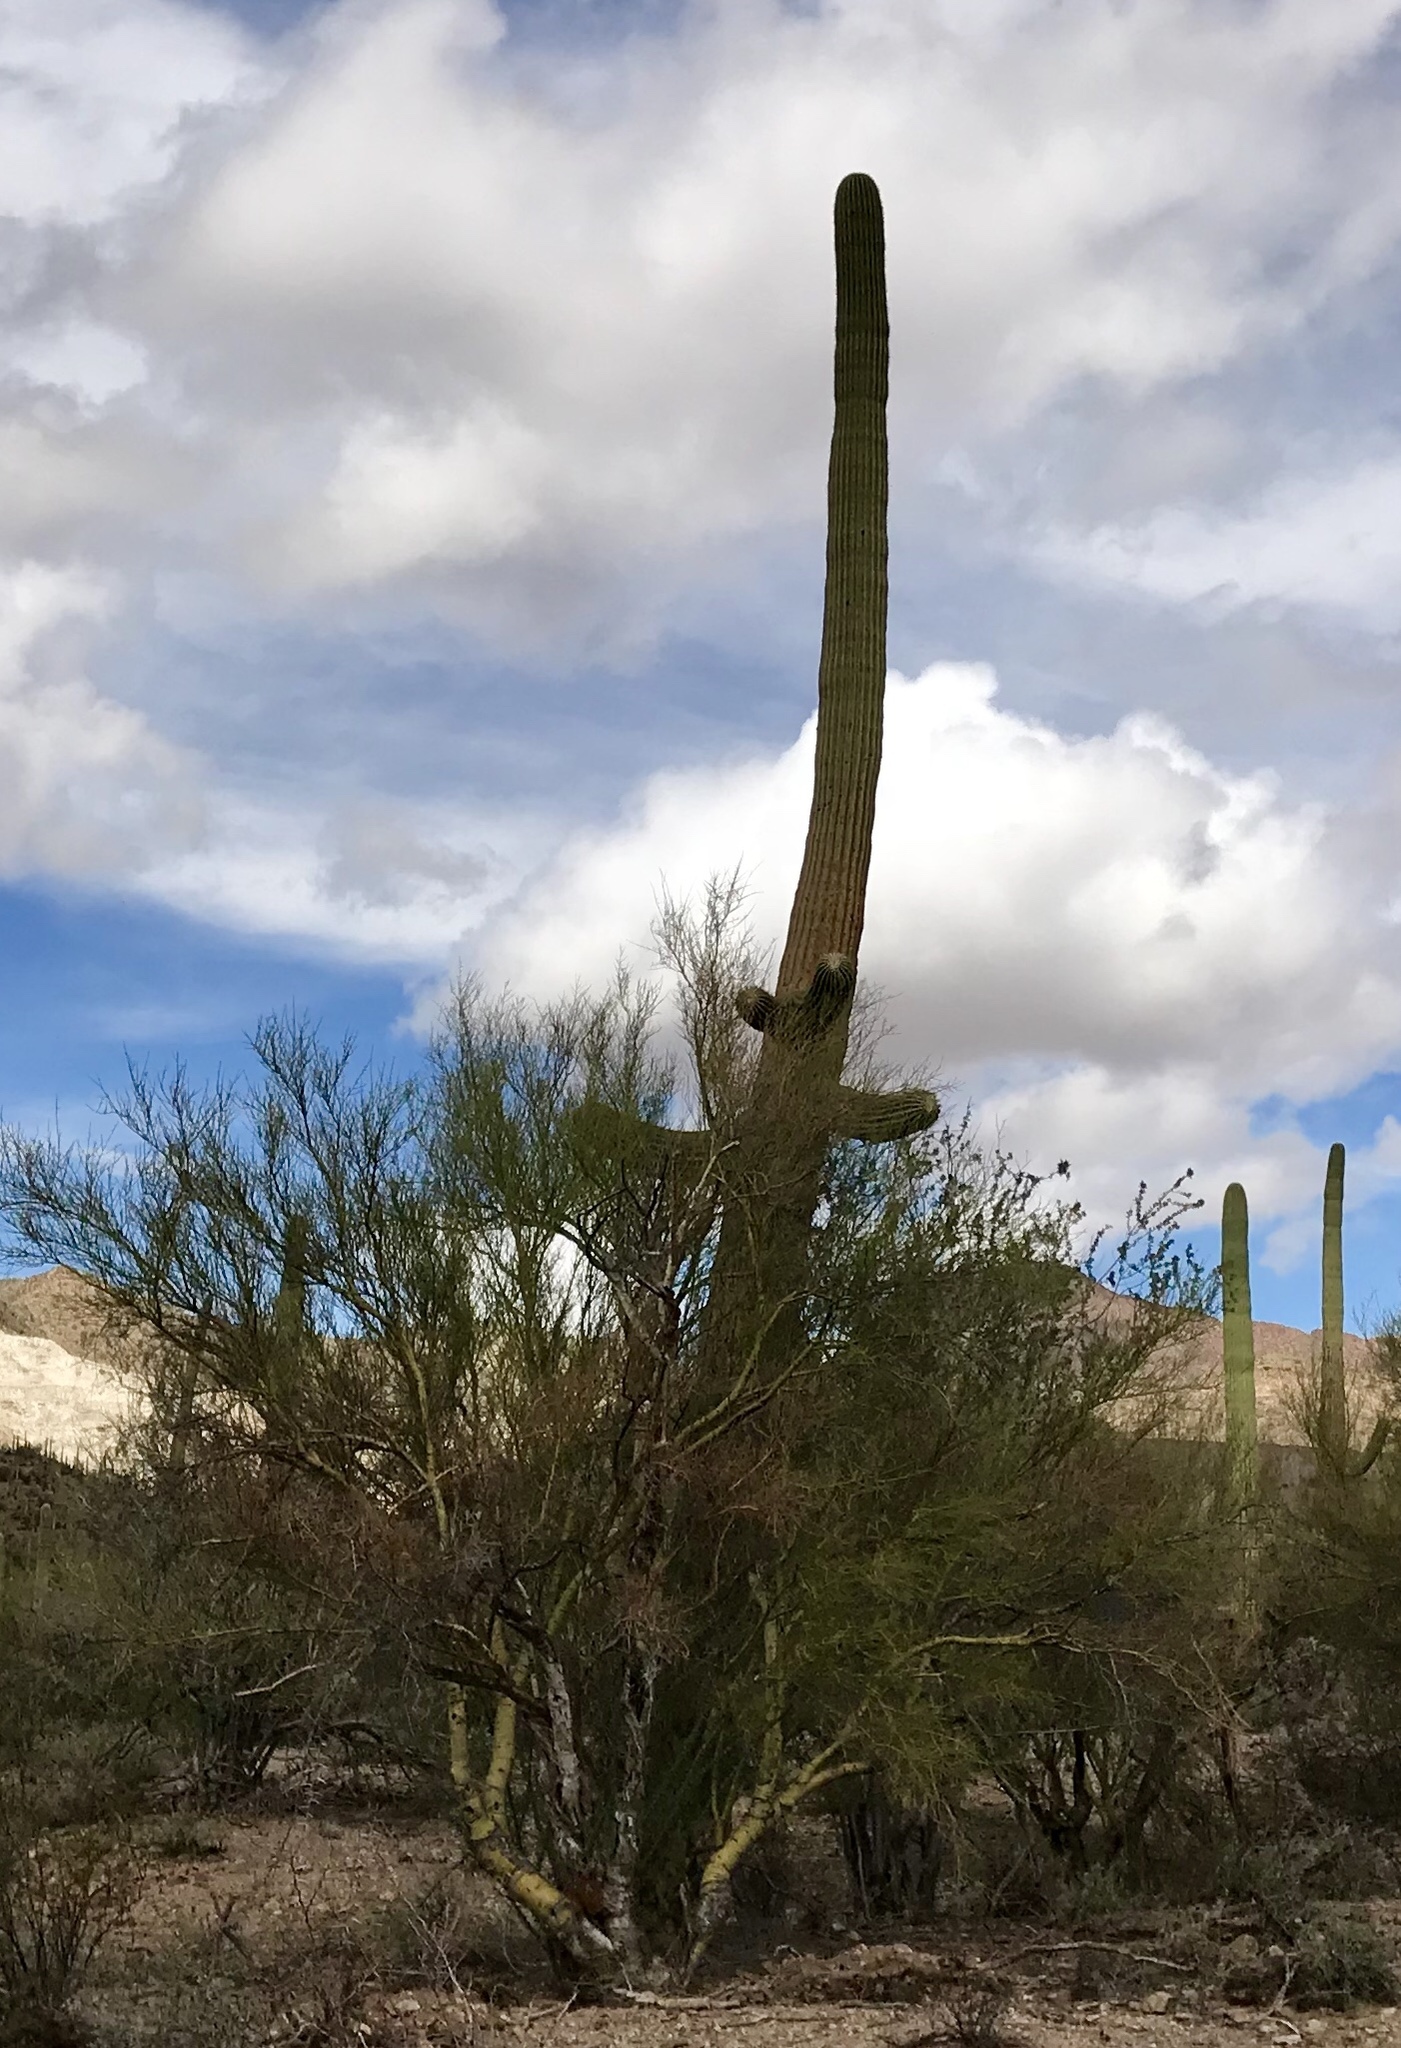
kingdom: Plantae
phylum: Tracheophyta
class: Magnoliopsida
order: Caryophyllales
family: Cactaceae
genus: Carnegiea
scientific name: Carnegiea gigantea
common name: Saguaro
